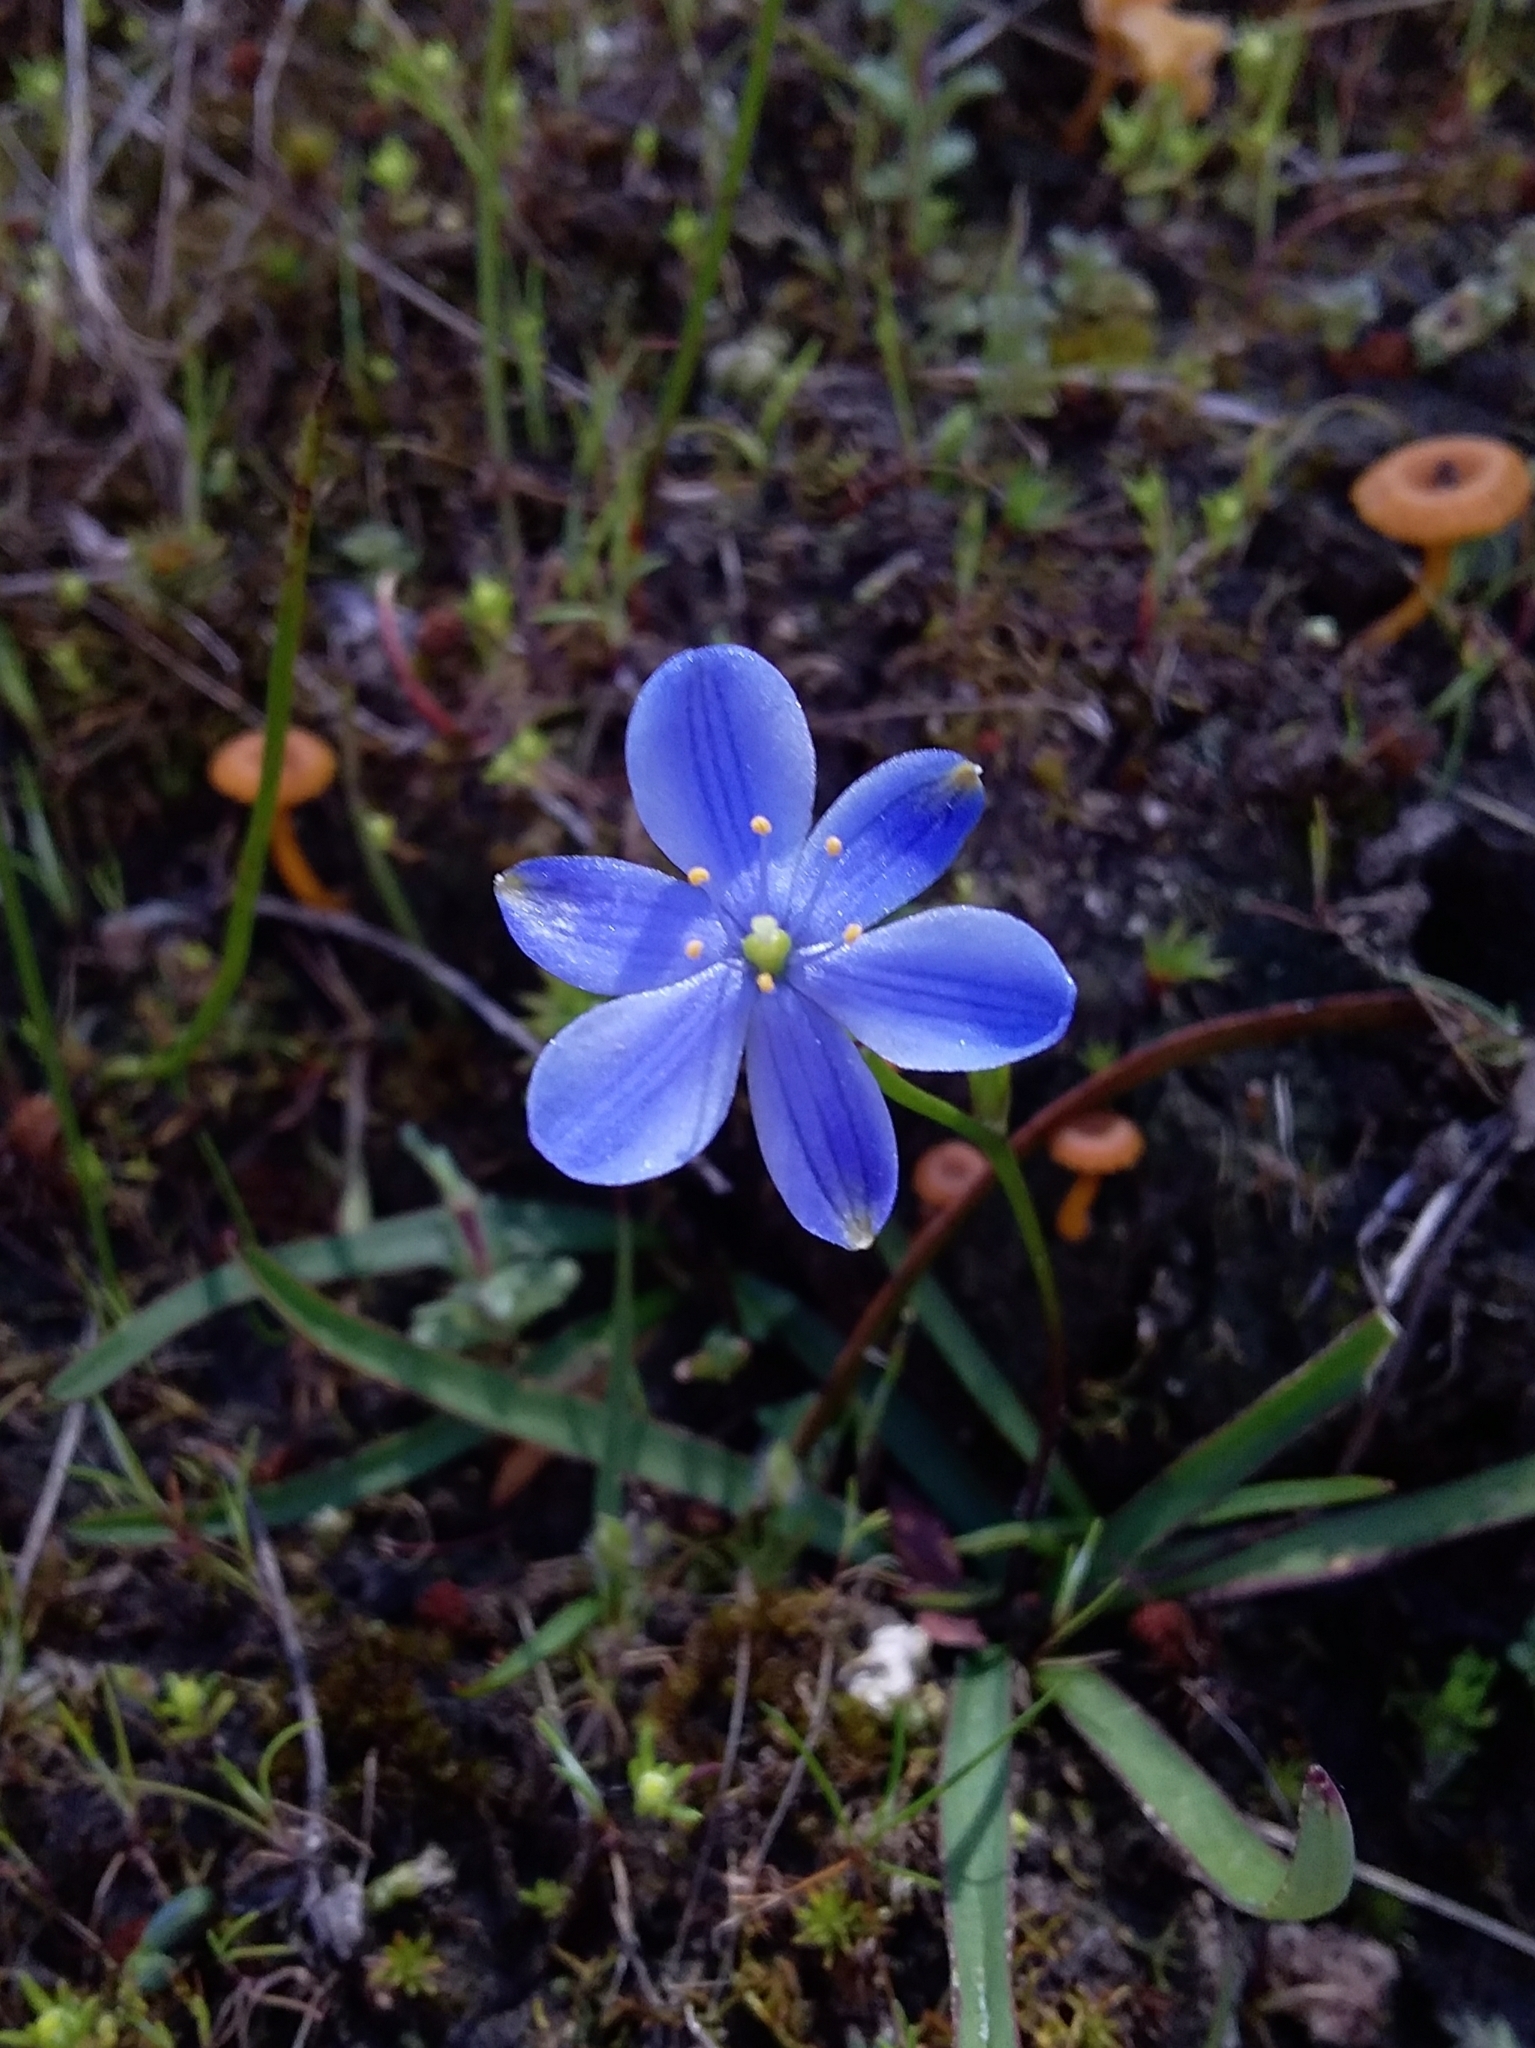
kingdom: Plantae
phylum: Tracheophyta
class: Liliopsida
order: Asparagales
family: Asphodelaceae
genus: Chamaescilla
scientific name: Chamaescilla corymbosa
